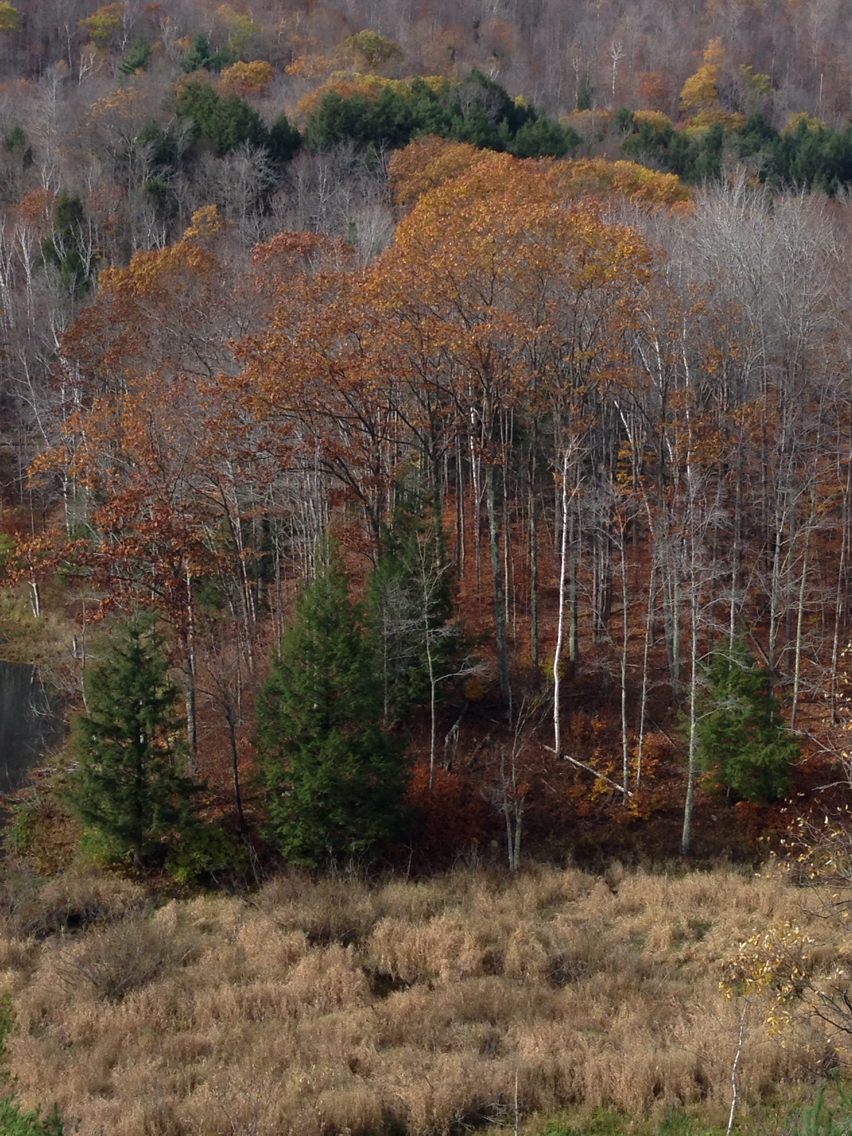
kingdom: Plantae
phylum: Tracheophyta
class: Magnoliopsida
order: Fagales
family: Fagaceae
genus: Quercus
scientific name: Quercus rubra
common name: Red oak
